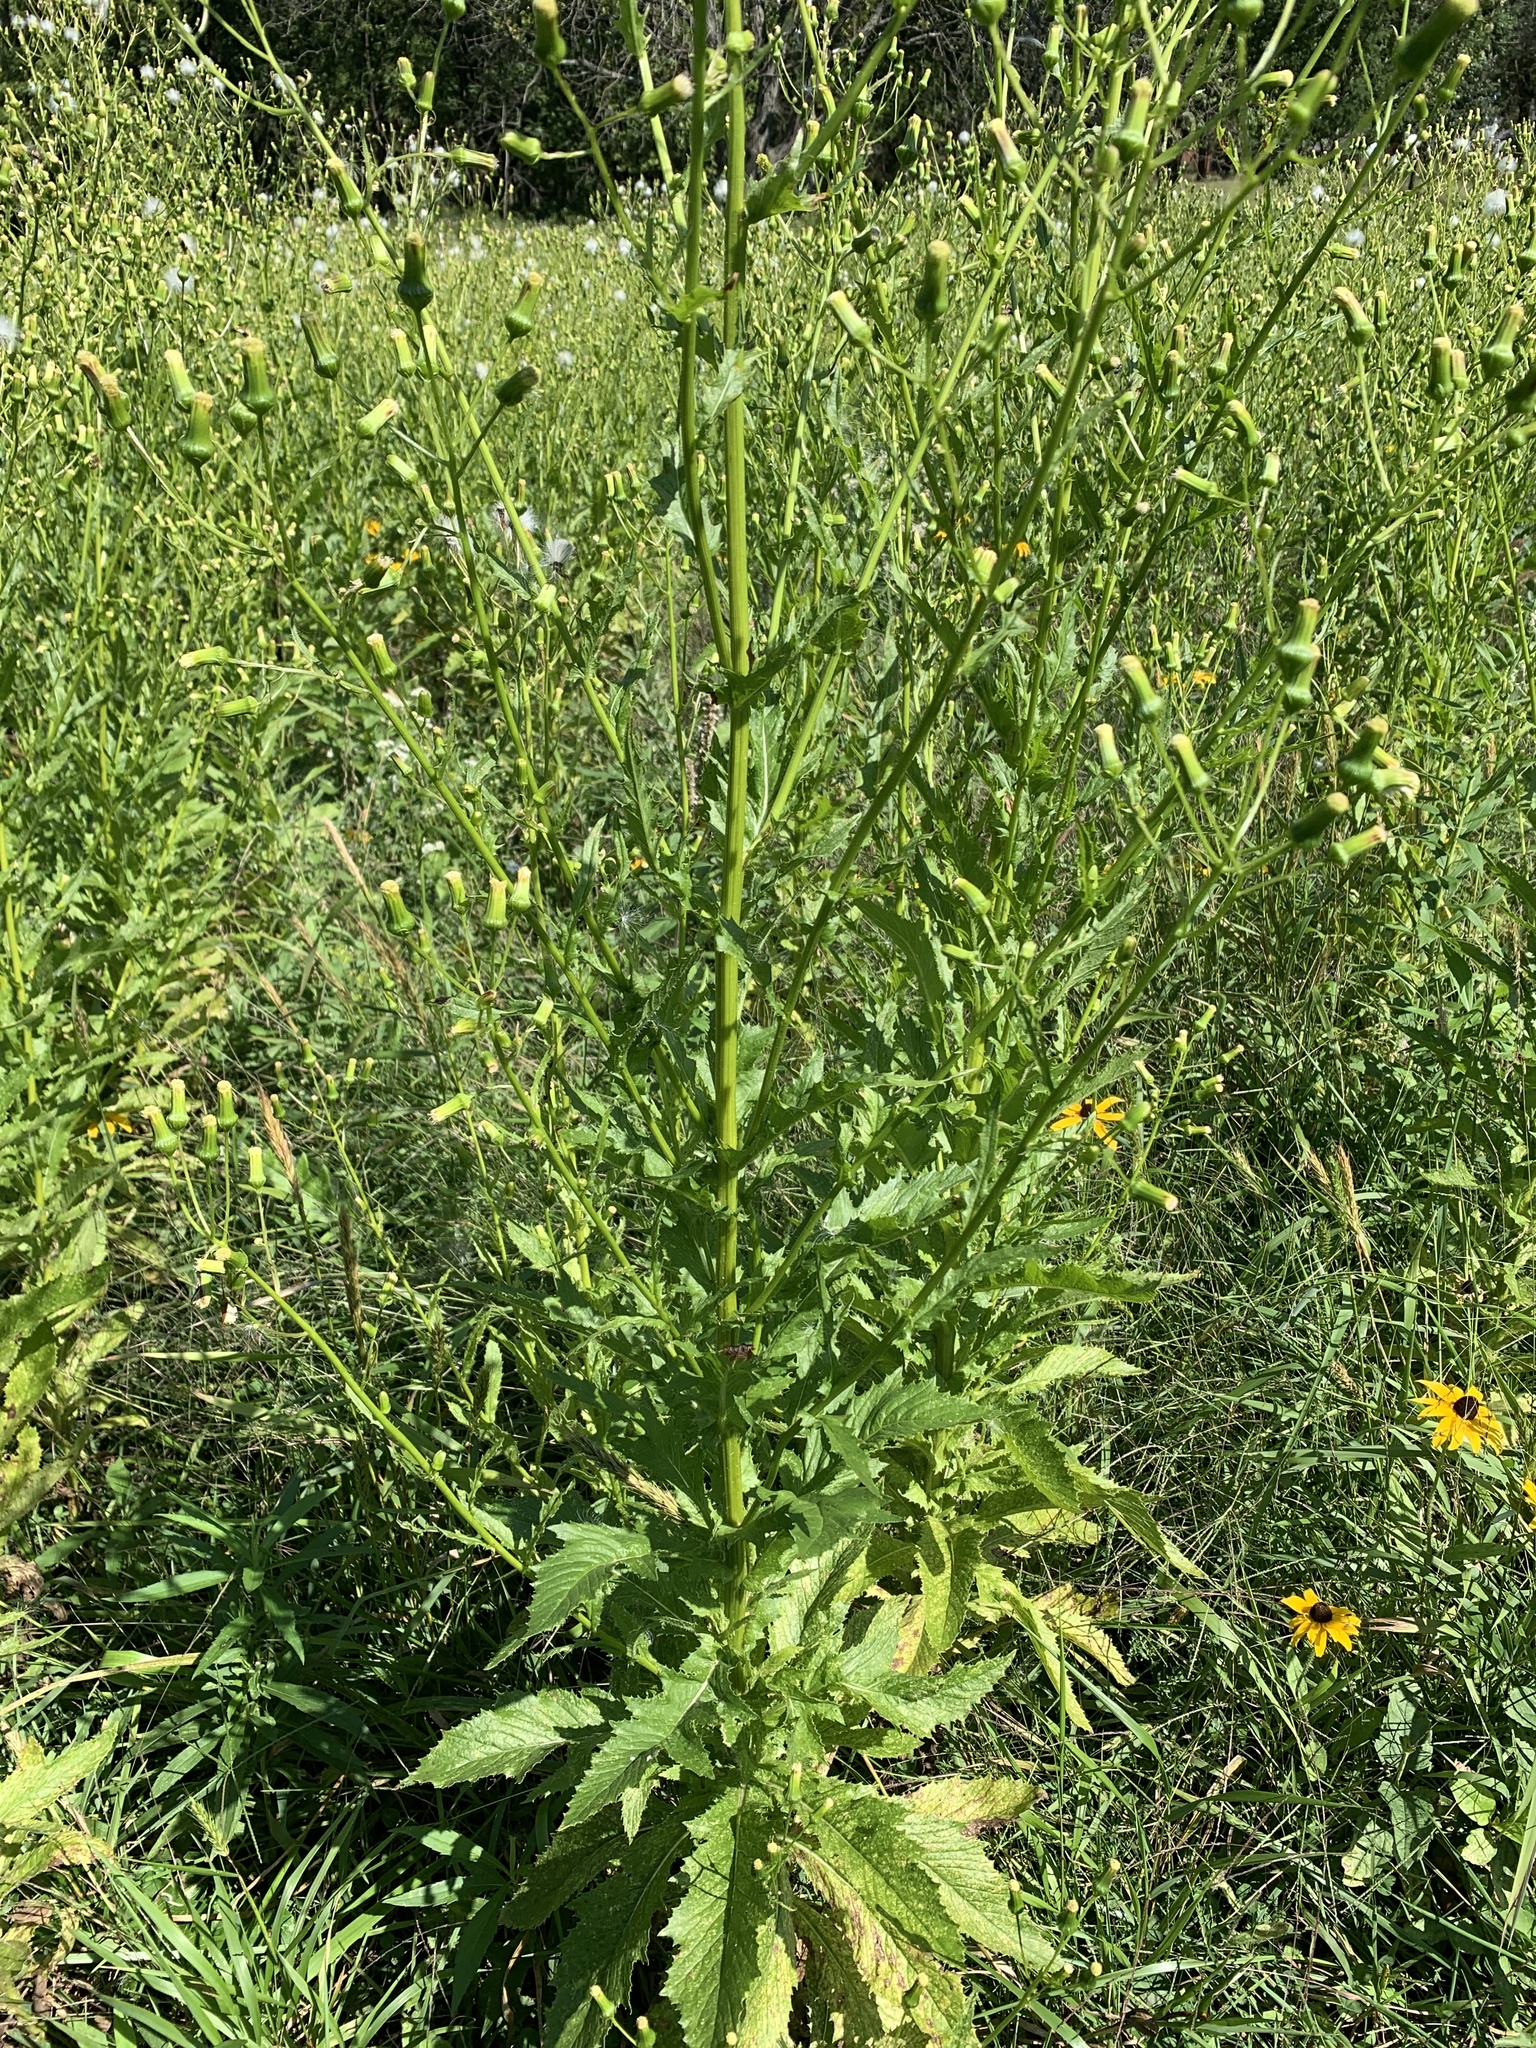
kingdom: Plantae
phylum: Tracheophyta
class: Magnoliopsida
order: Asterales
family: Asteraceae
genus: Erechtites
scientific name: Erechtites hieraciifolius
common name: American burnweed
